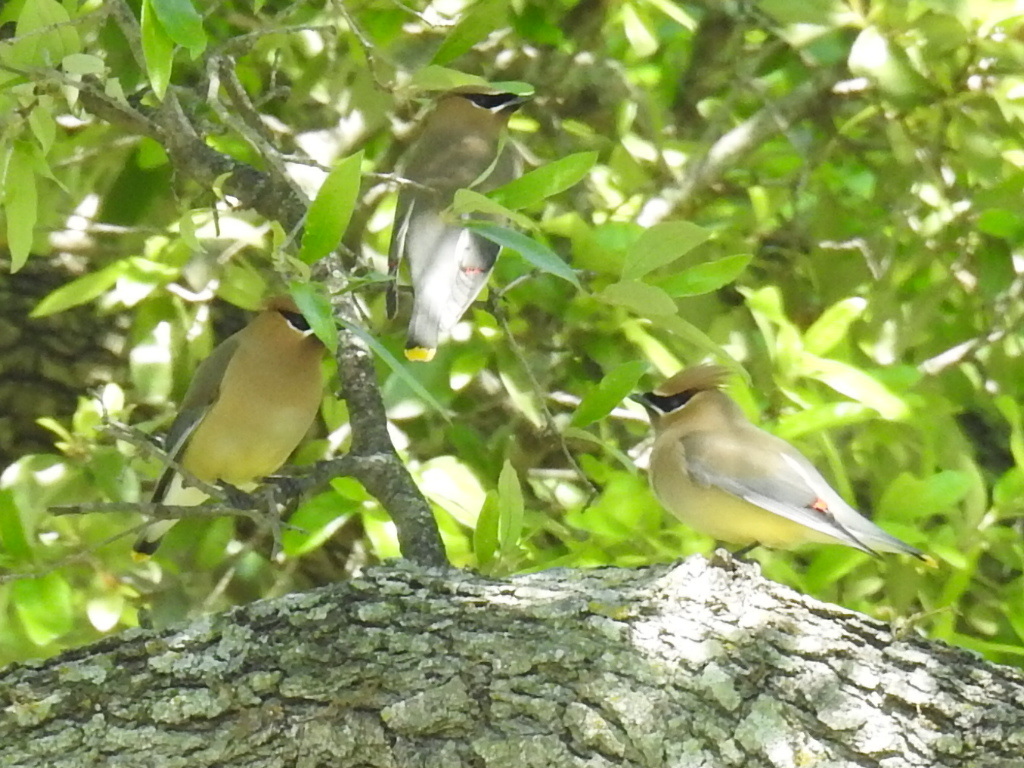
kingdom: Animalia
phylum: Chordata
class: Aves
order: Passeriformes
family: Bombycillidae
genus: Bombycilla
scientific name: Bombycilla cedrorum
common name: Cedar waxwing
